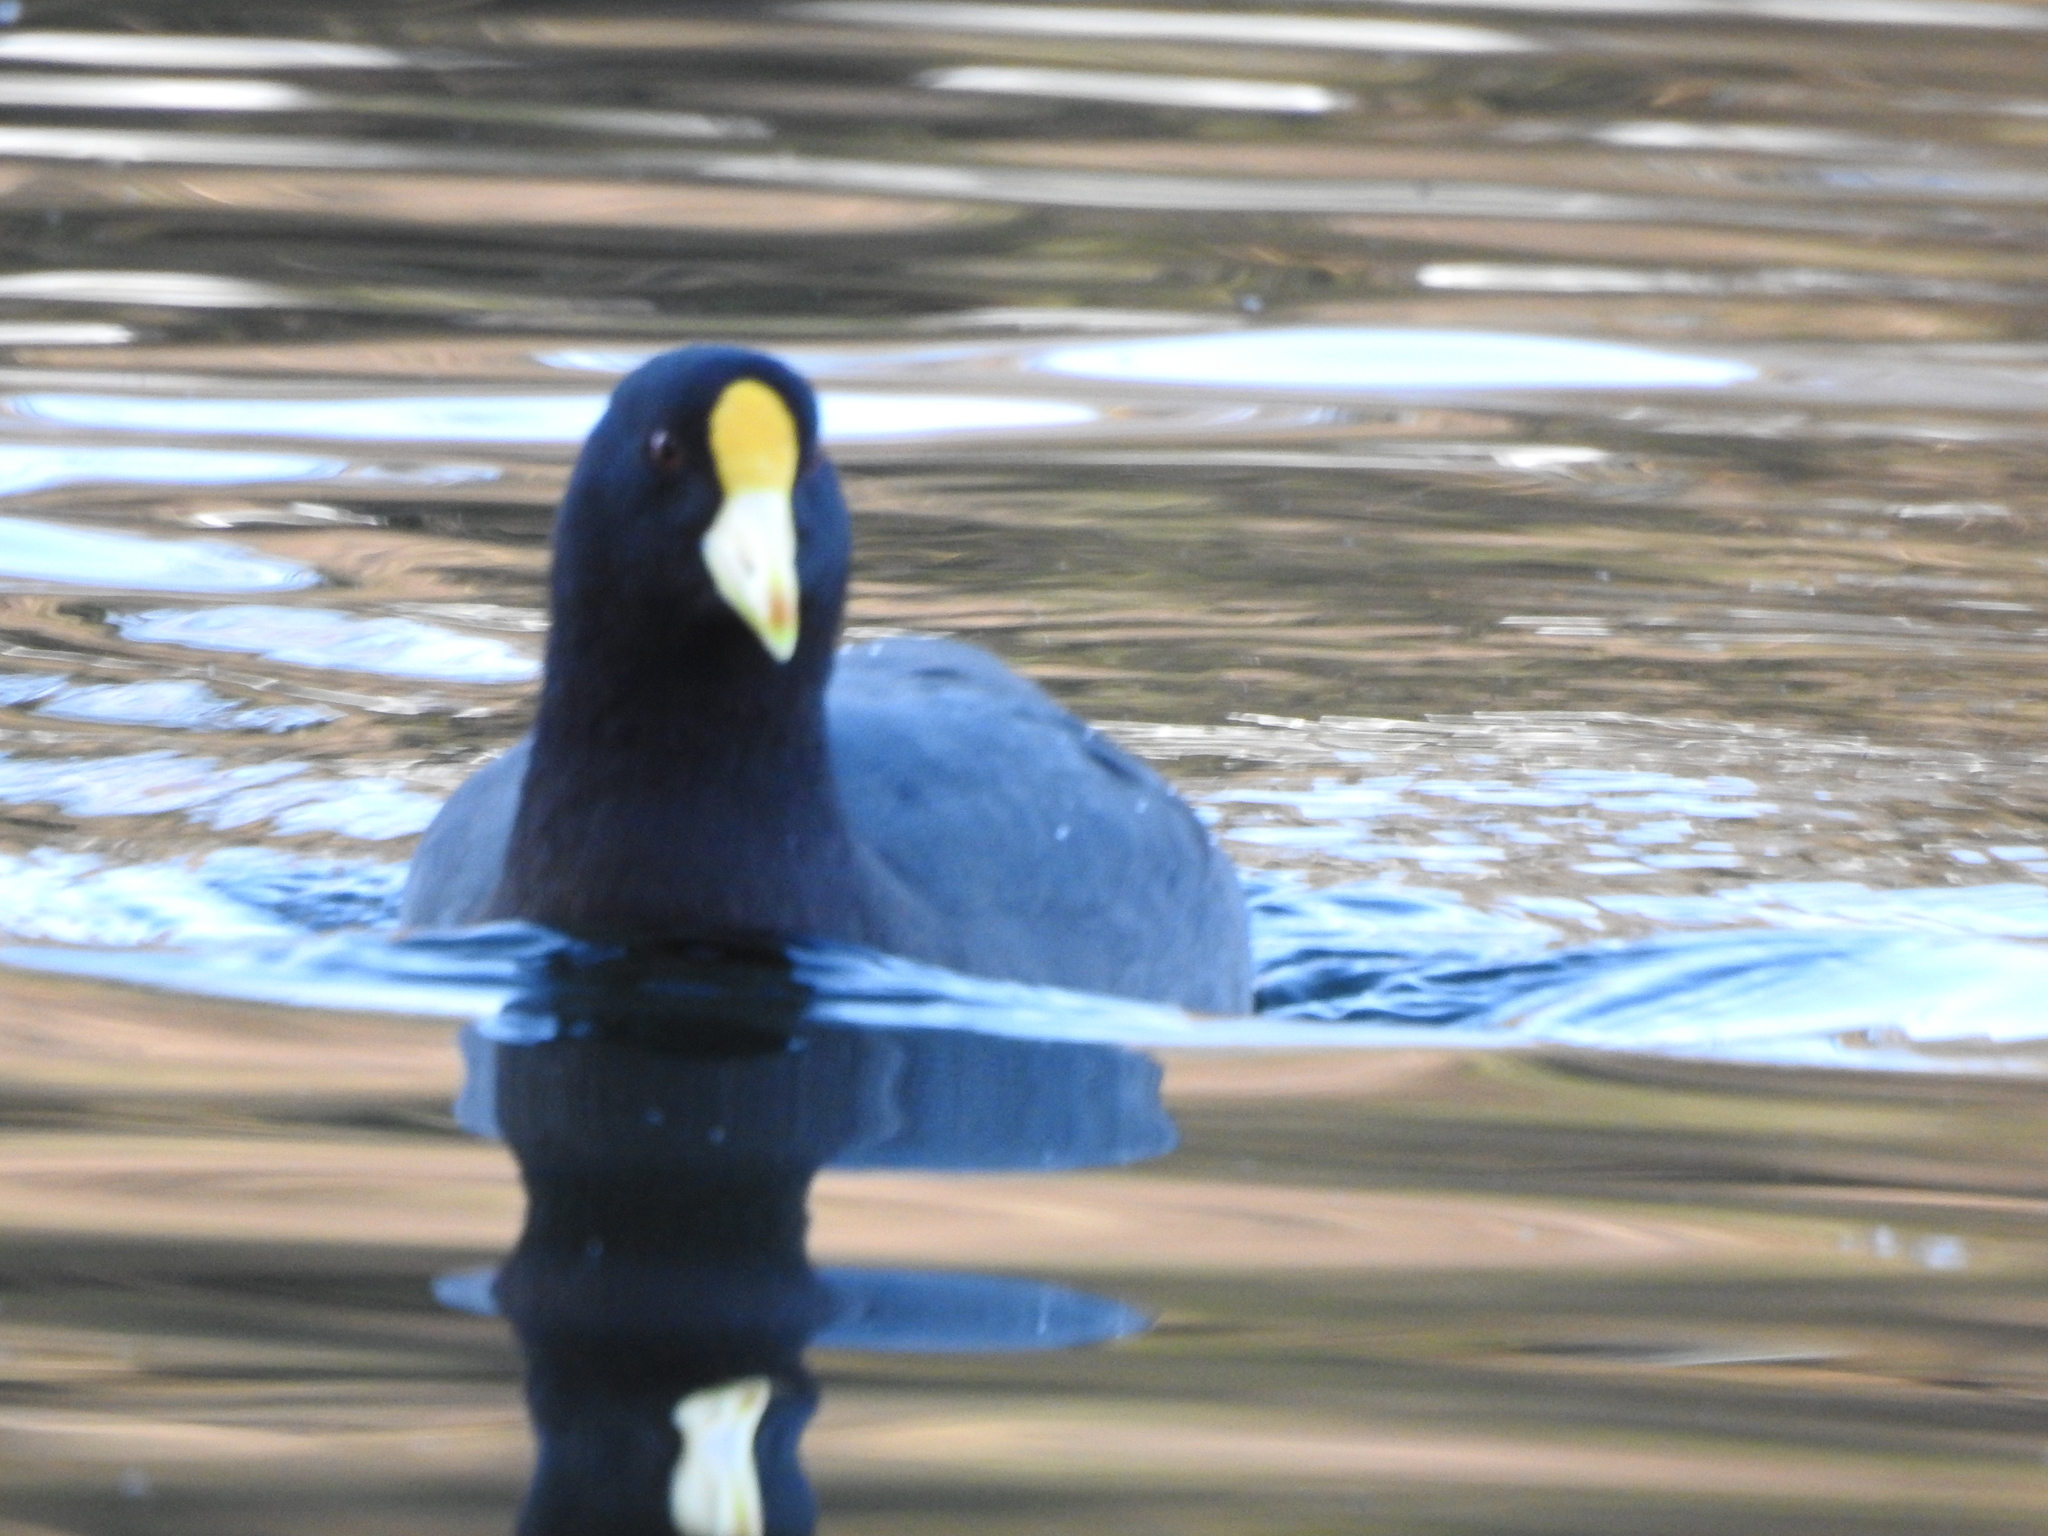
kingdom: Animalia
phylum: Chordata
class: Aves
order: Gruiformes
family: Rallidae
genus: Fulica
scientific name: Fulica leucoptera
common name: White-winged coot
